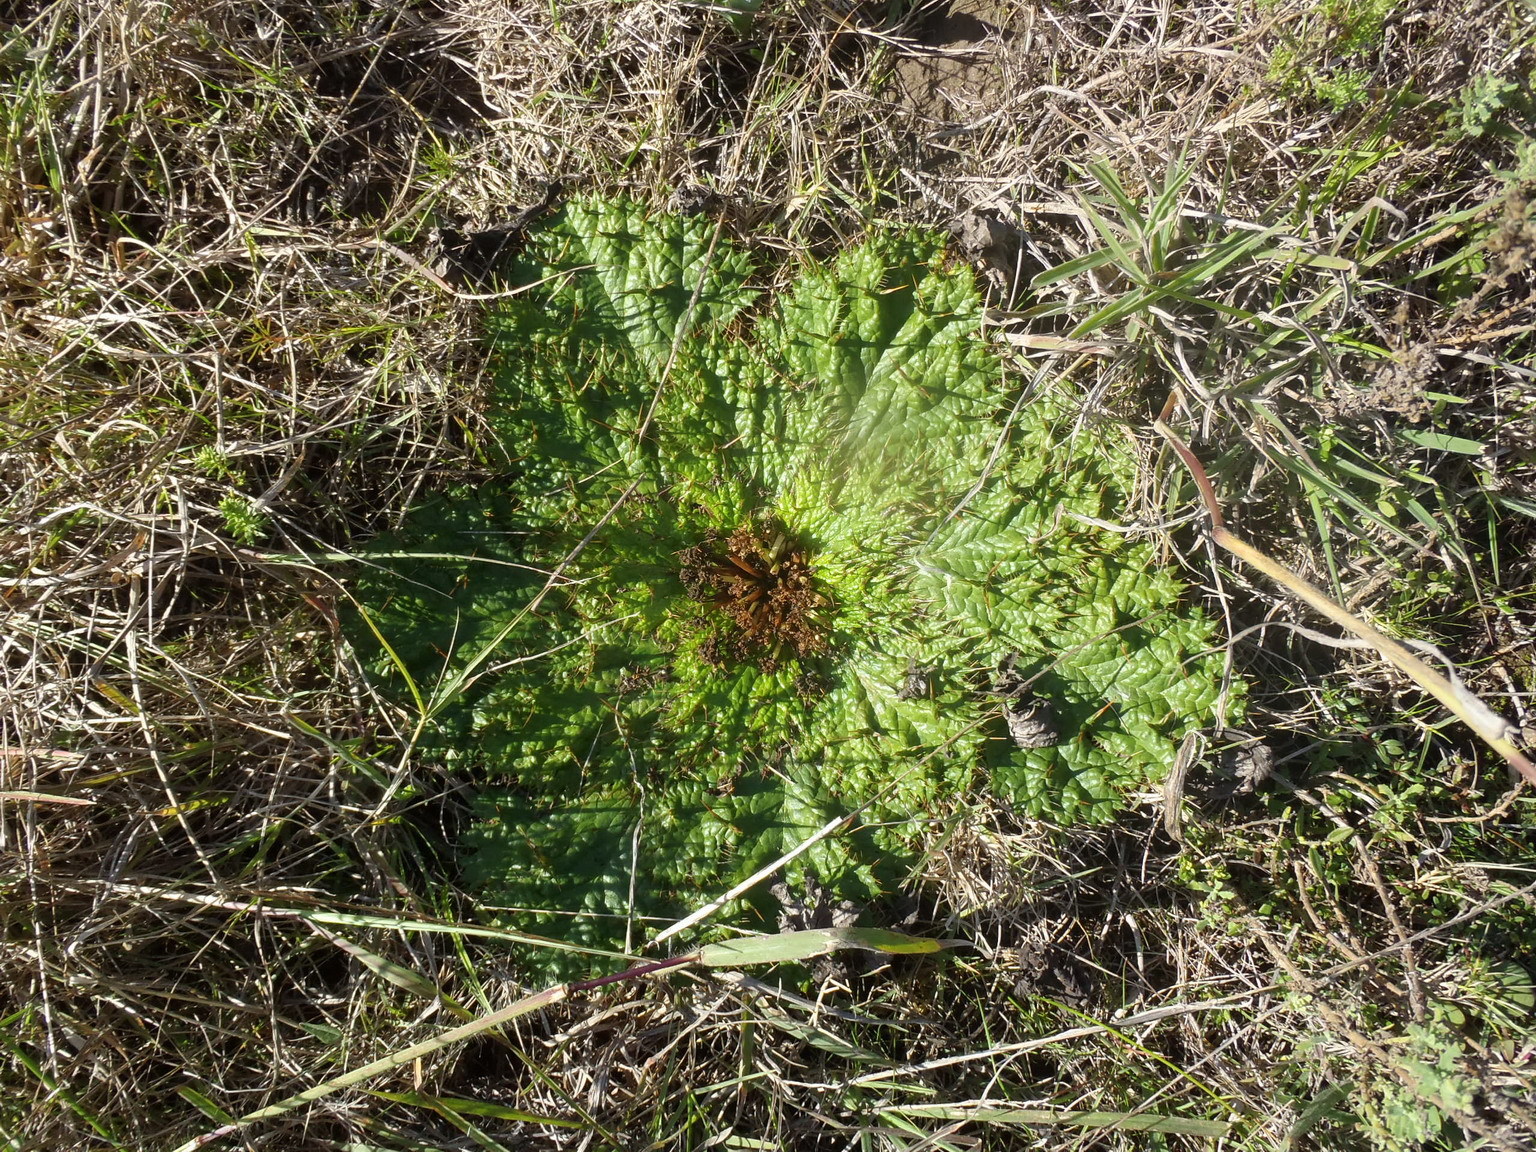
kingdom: Plantae
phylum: Tracheophyta
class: Magnoliopsida
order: Apiales
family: Apiaceae
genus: Arctopus
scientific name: Arctopus echinatus
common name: Platdoring
